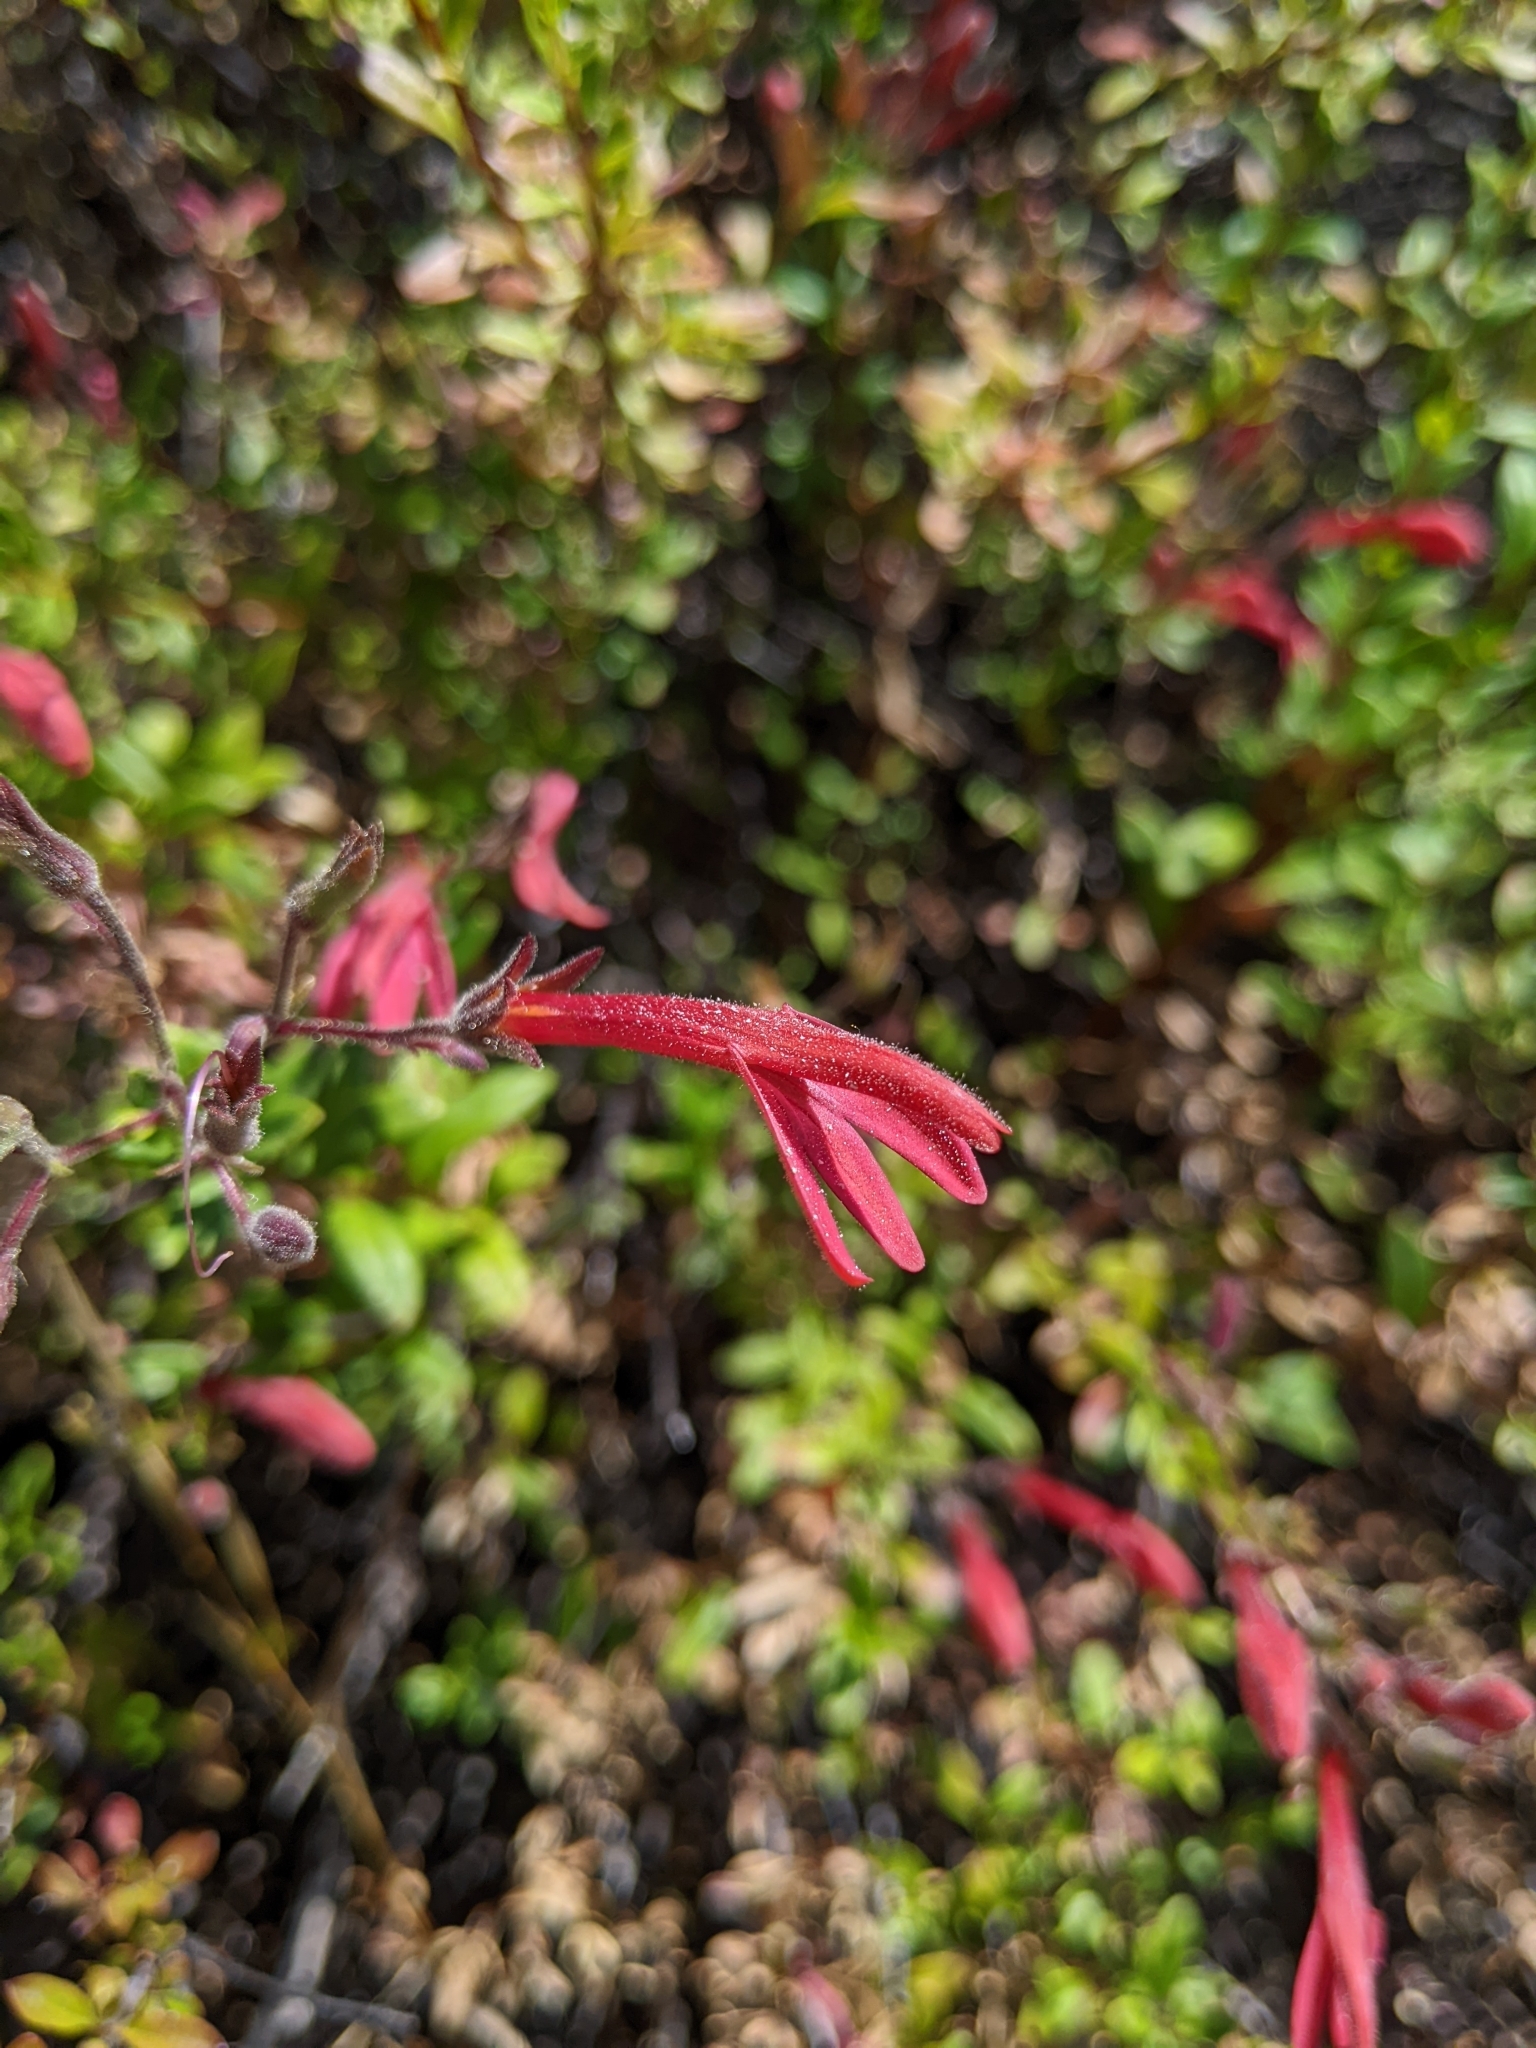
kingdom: Plantae
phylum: Tracheophyta
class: Magnoliopsida
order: Lamiales
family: Plantaginaceae
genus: Keckiella
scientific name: Keckiella corymbosa
